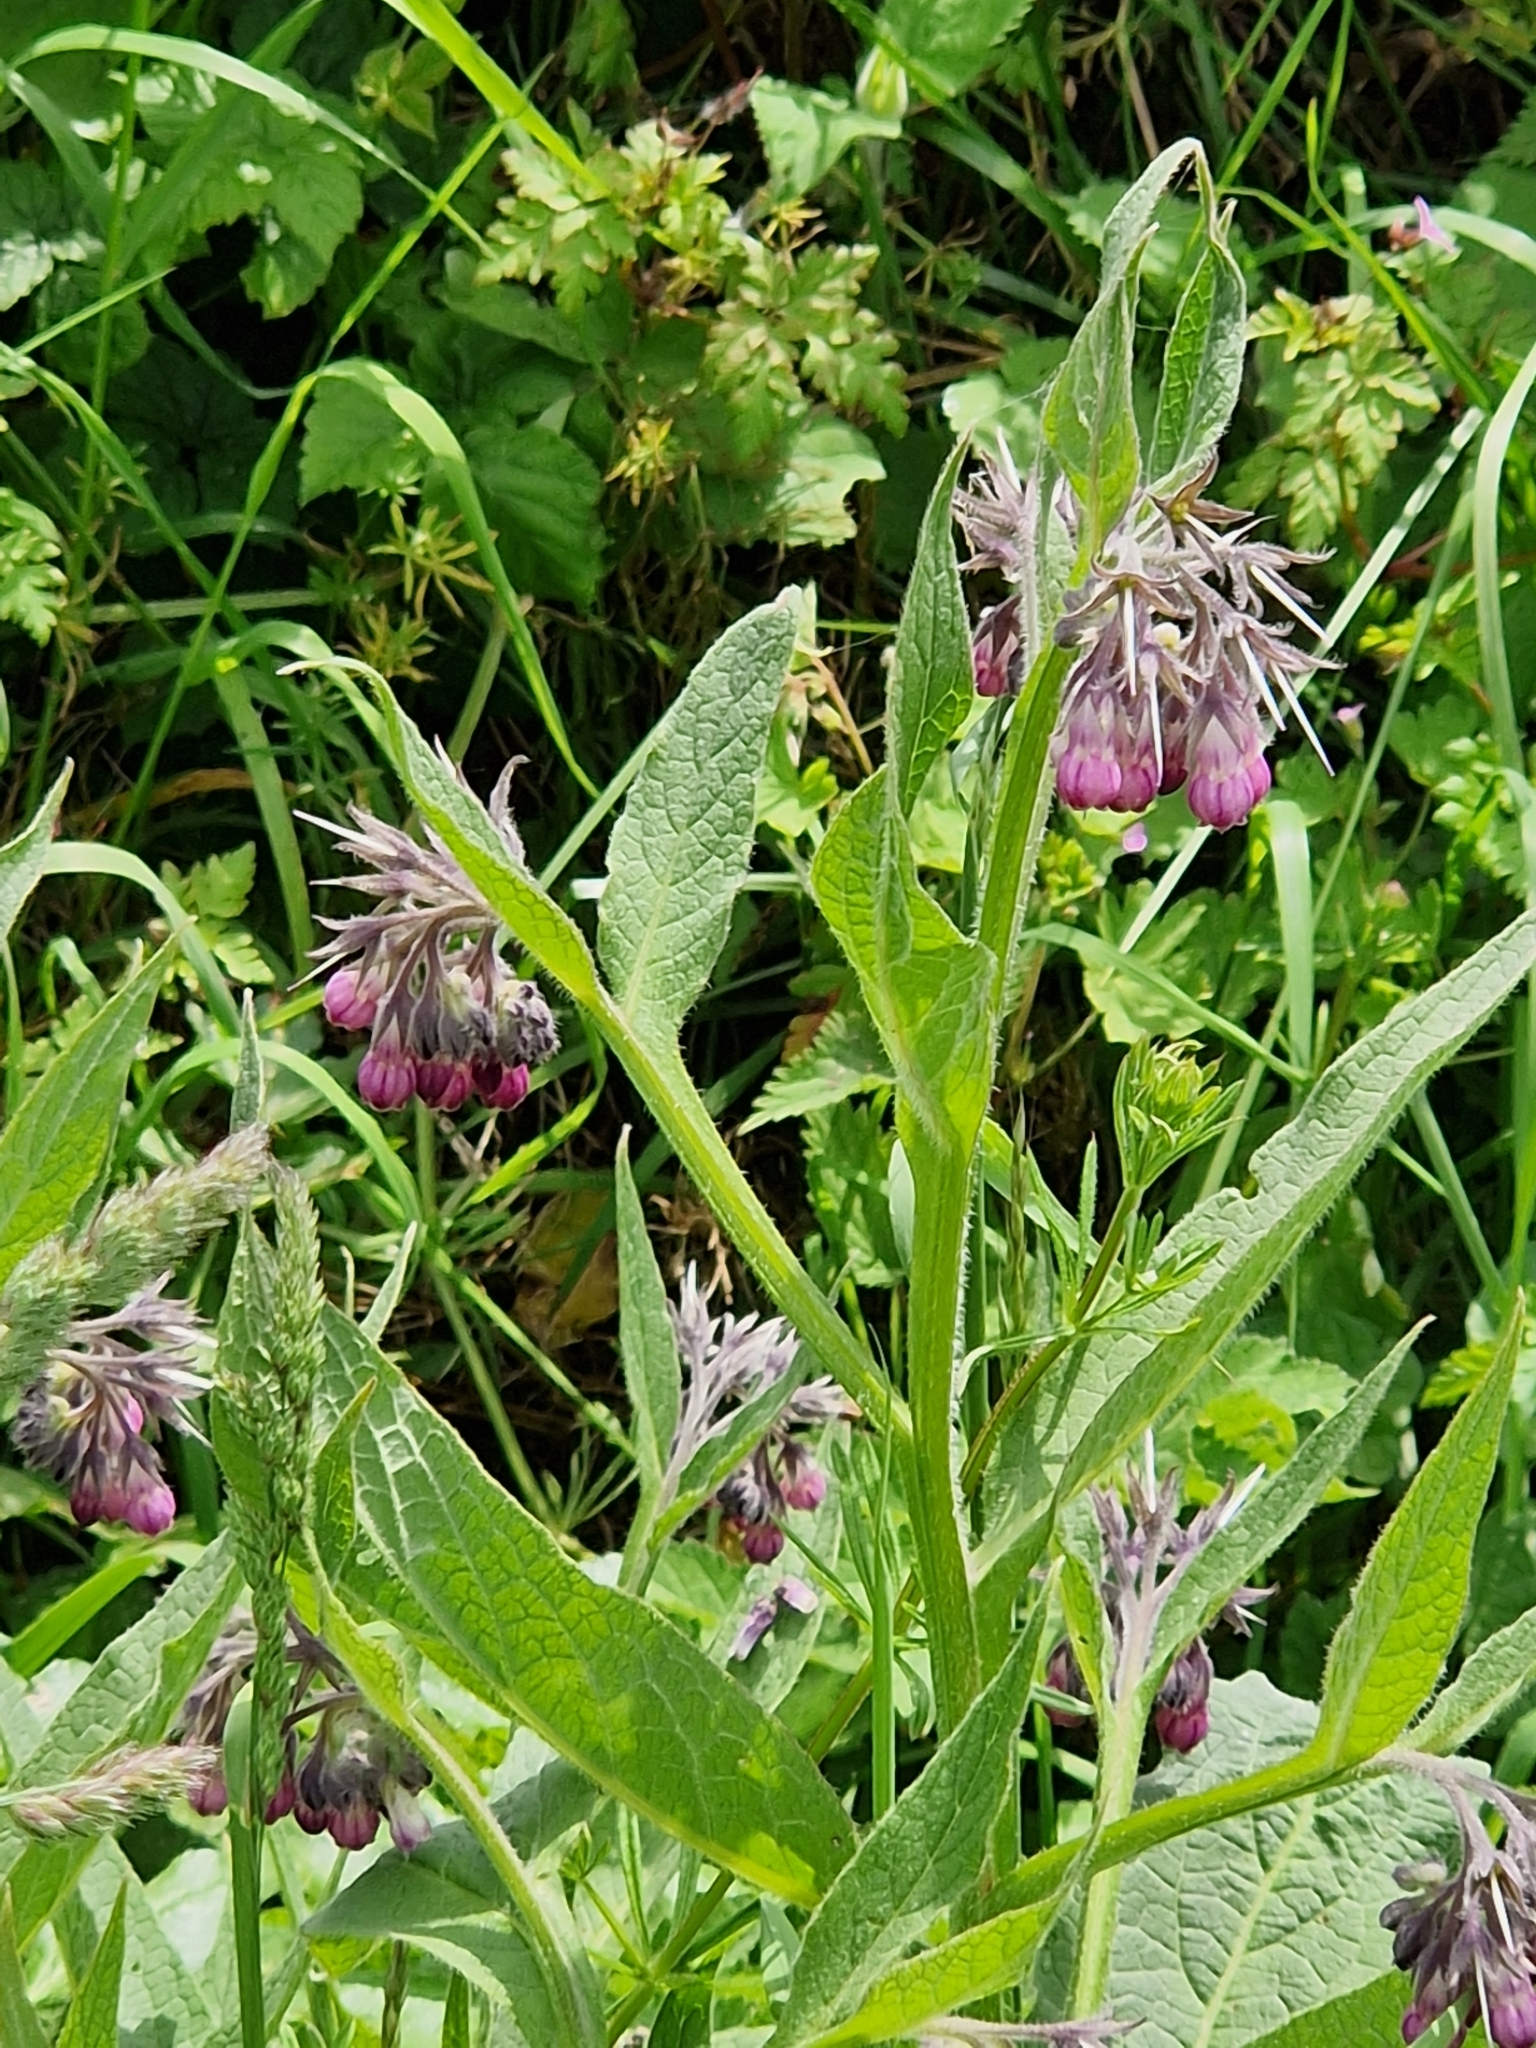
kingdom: Plantae
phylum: Tracheophyta
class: Magnoliopsida
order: Boraginales
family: Boraginaceae
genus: Symphytum
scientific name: Symphytum officinale
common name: Common comfrey
